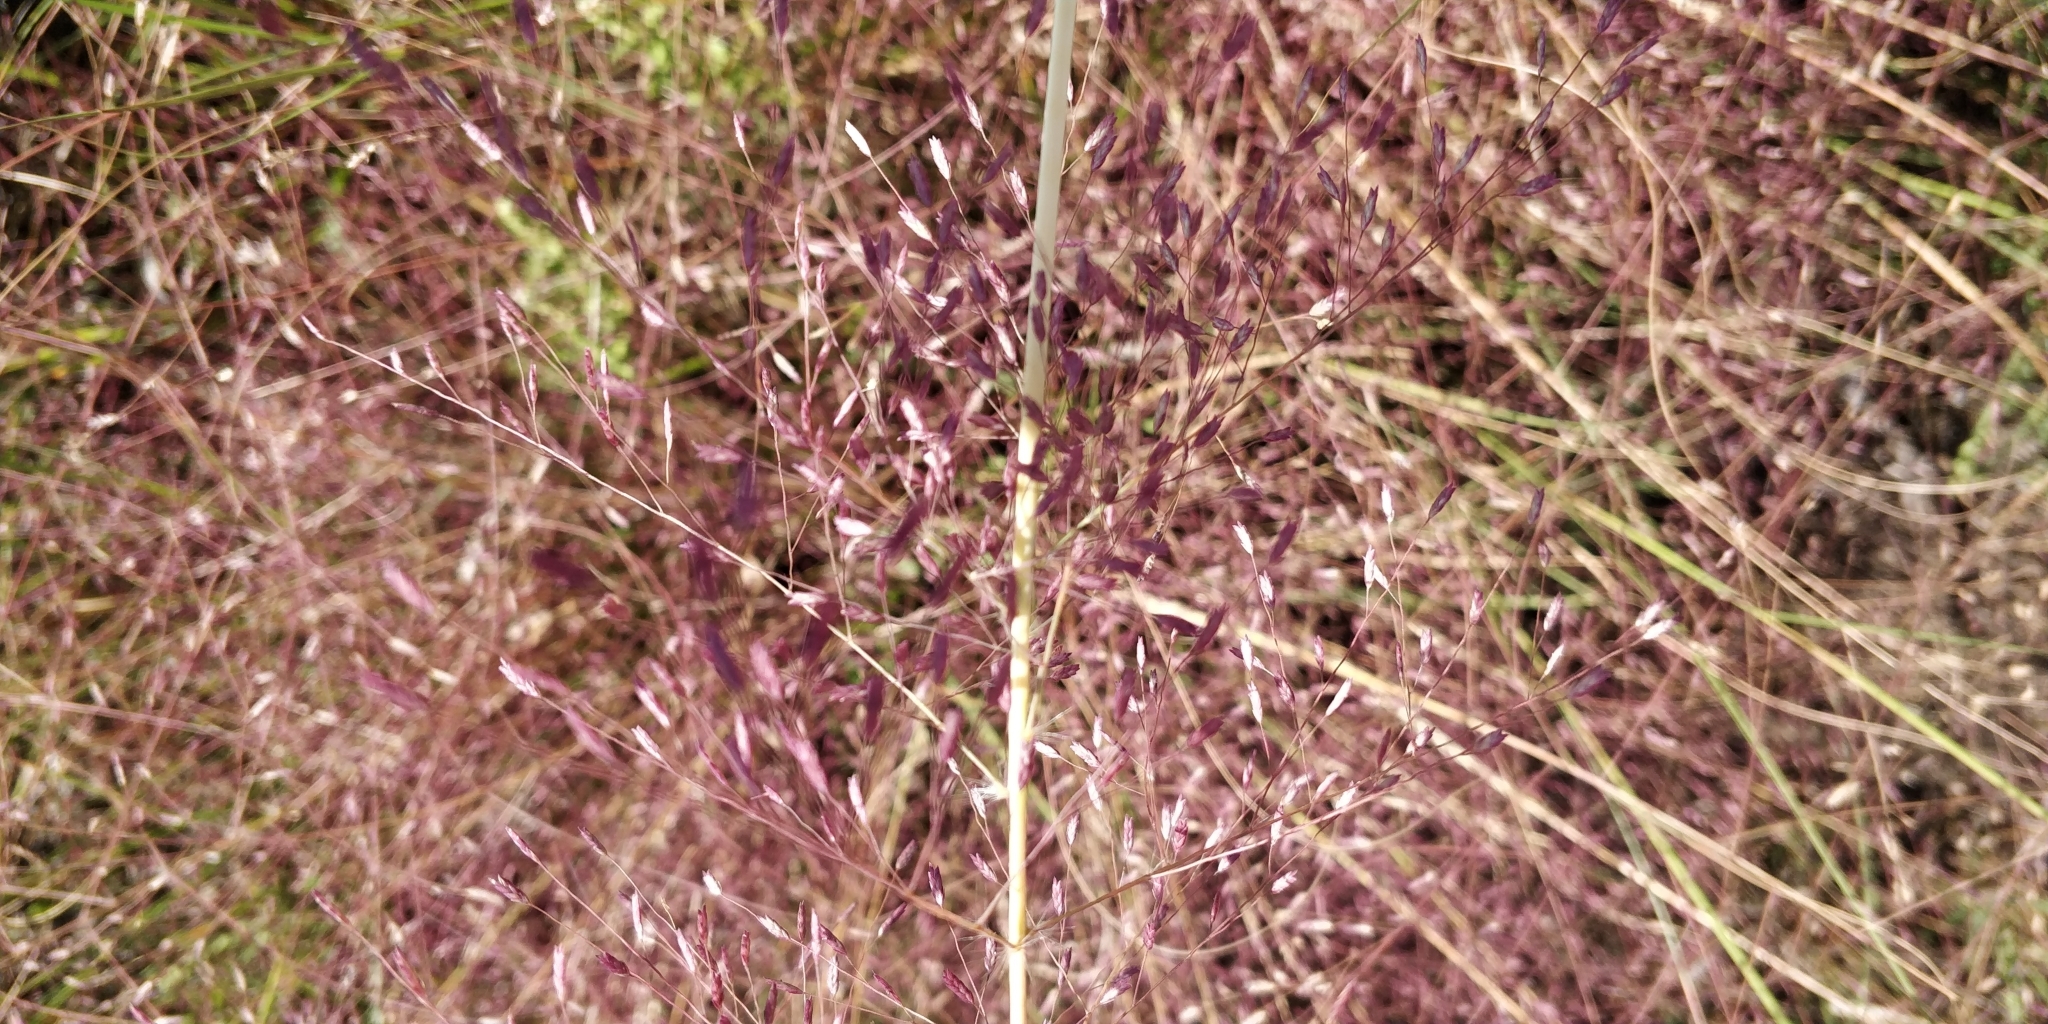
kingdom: Plantae
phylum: Tracheophyta
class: Liliopsida
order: Poales
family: Poaceae
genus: Eragrostis
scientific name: Eragrostis spectabilis
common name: Petticoat-climber
